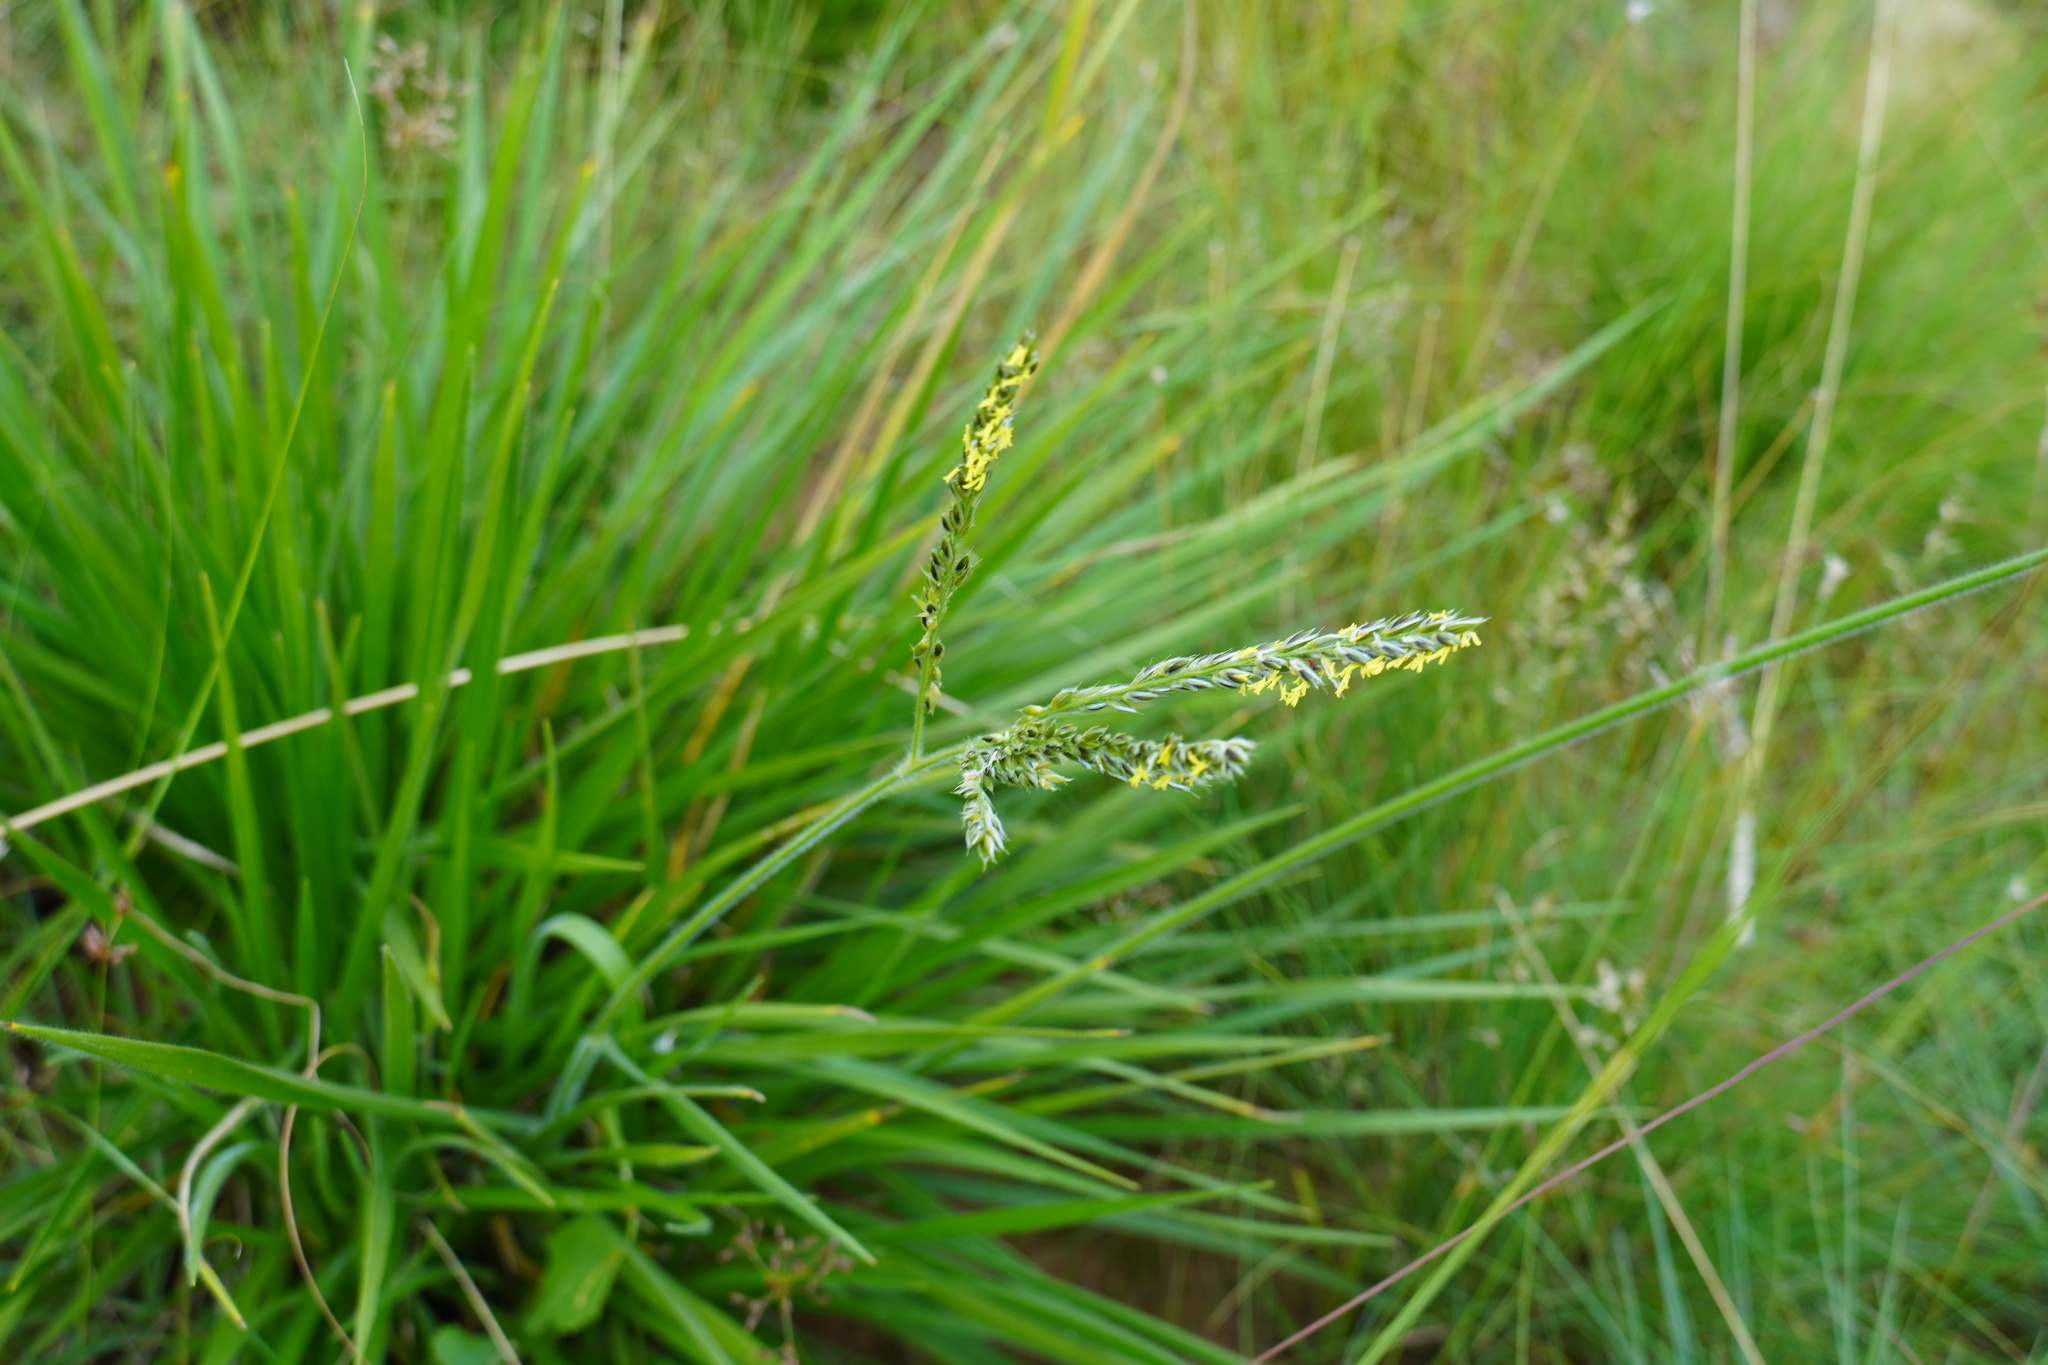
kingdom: Plantae
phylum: Tracheophyta
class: Liliopsida
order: Poales
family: Poaceae
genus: Alloteropsis
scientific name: Alloteropsis semialata
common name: Cockatoo grass
